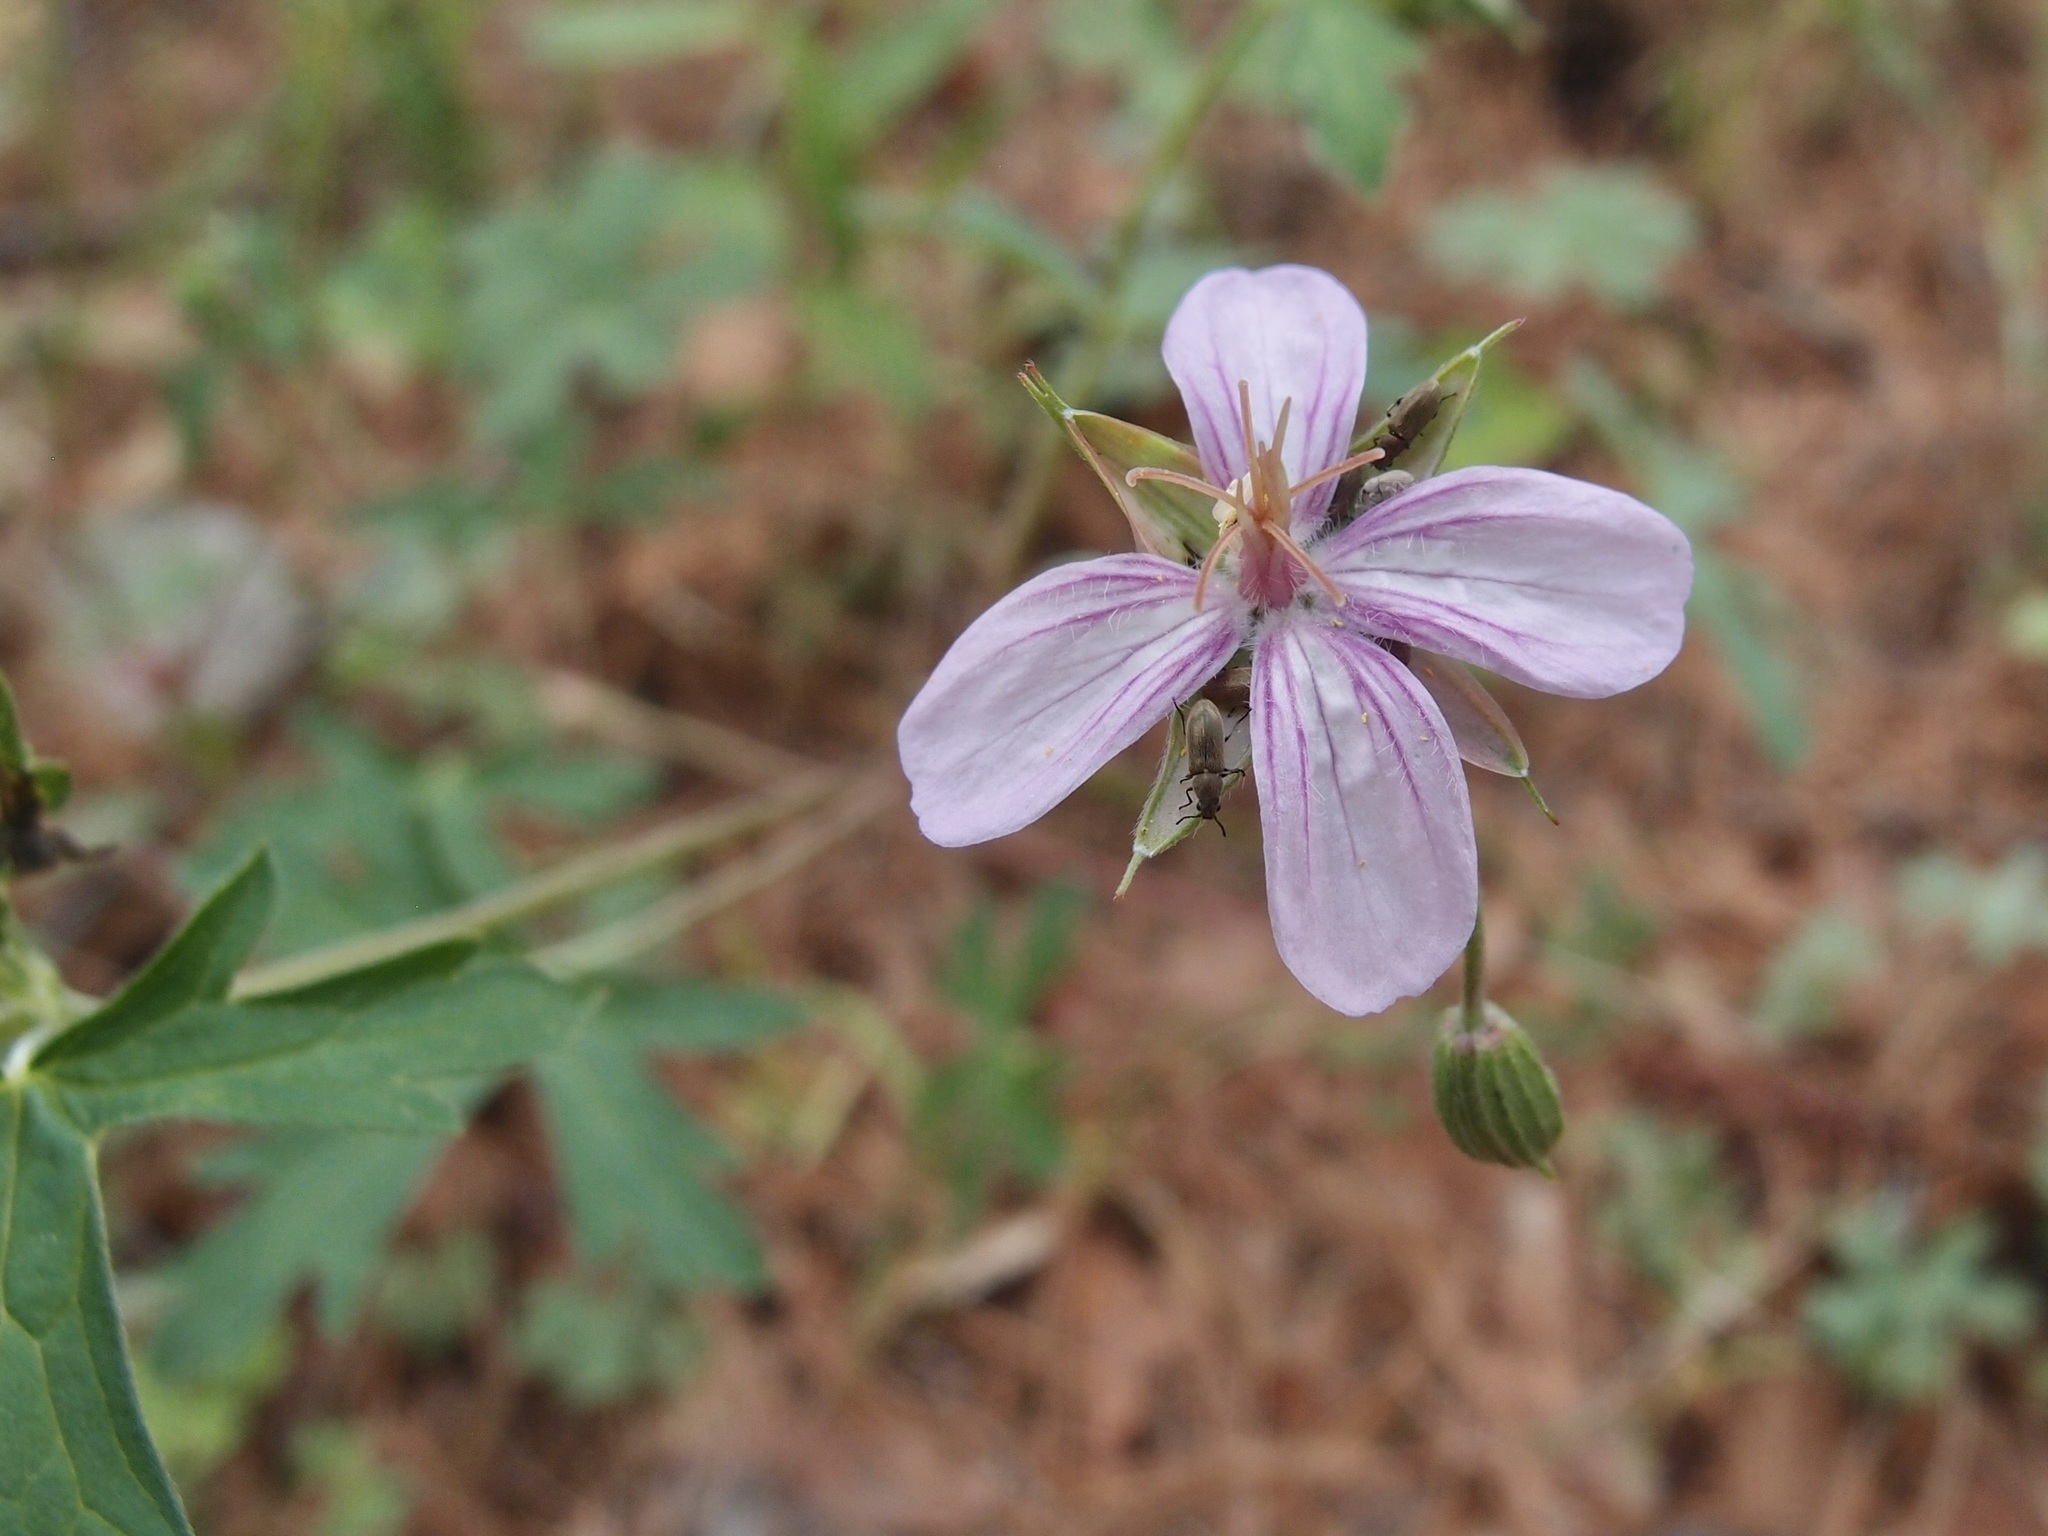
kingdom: Plantae
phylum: Tracheophyta
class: Magnoliopsida
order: Geraniales
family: Geraniaceae
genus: Geranium
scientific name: Geranium caespitosum
